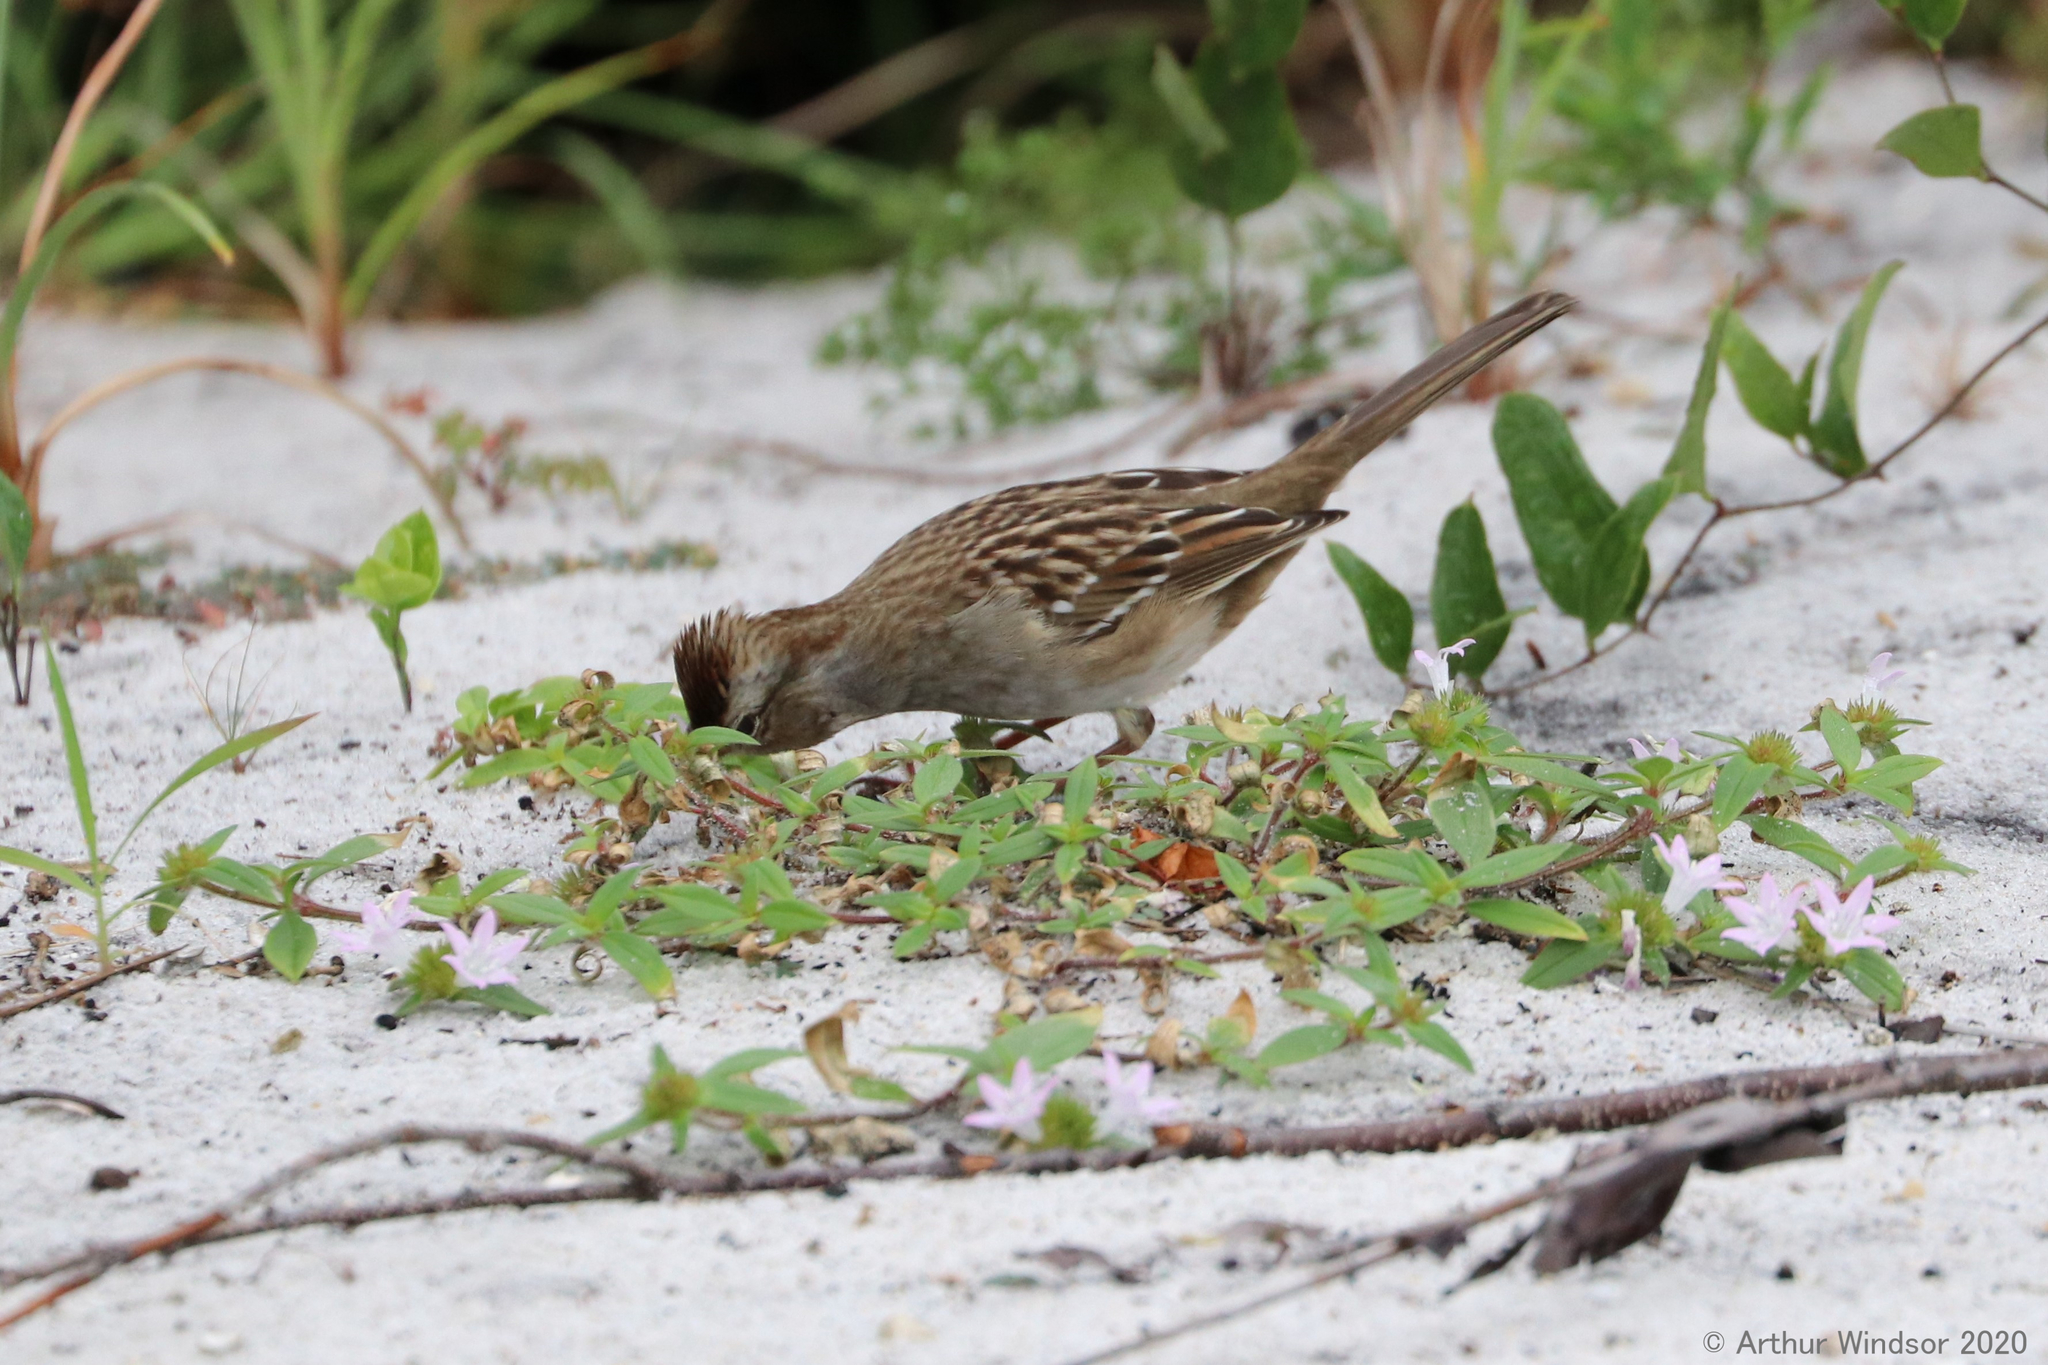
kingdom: Animalia
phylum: Chordata
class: Aves
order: Passeriformes
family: Passerellidae
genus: Zonotrichia
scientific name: Zonotrichia leucophrys
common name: White-crowned sparrow
